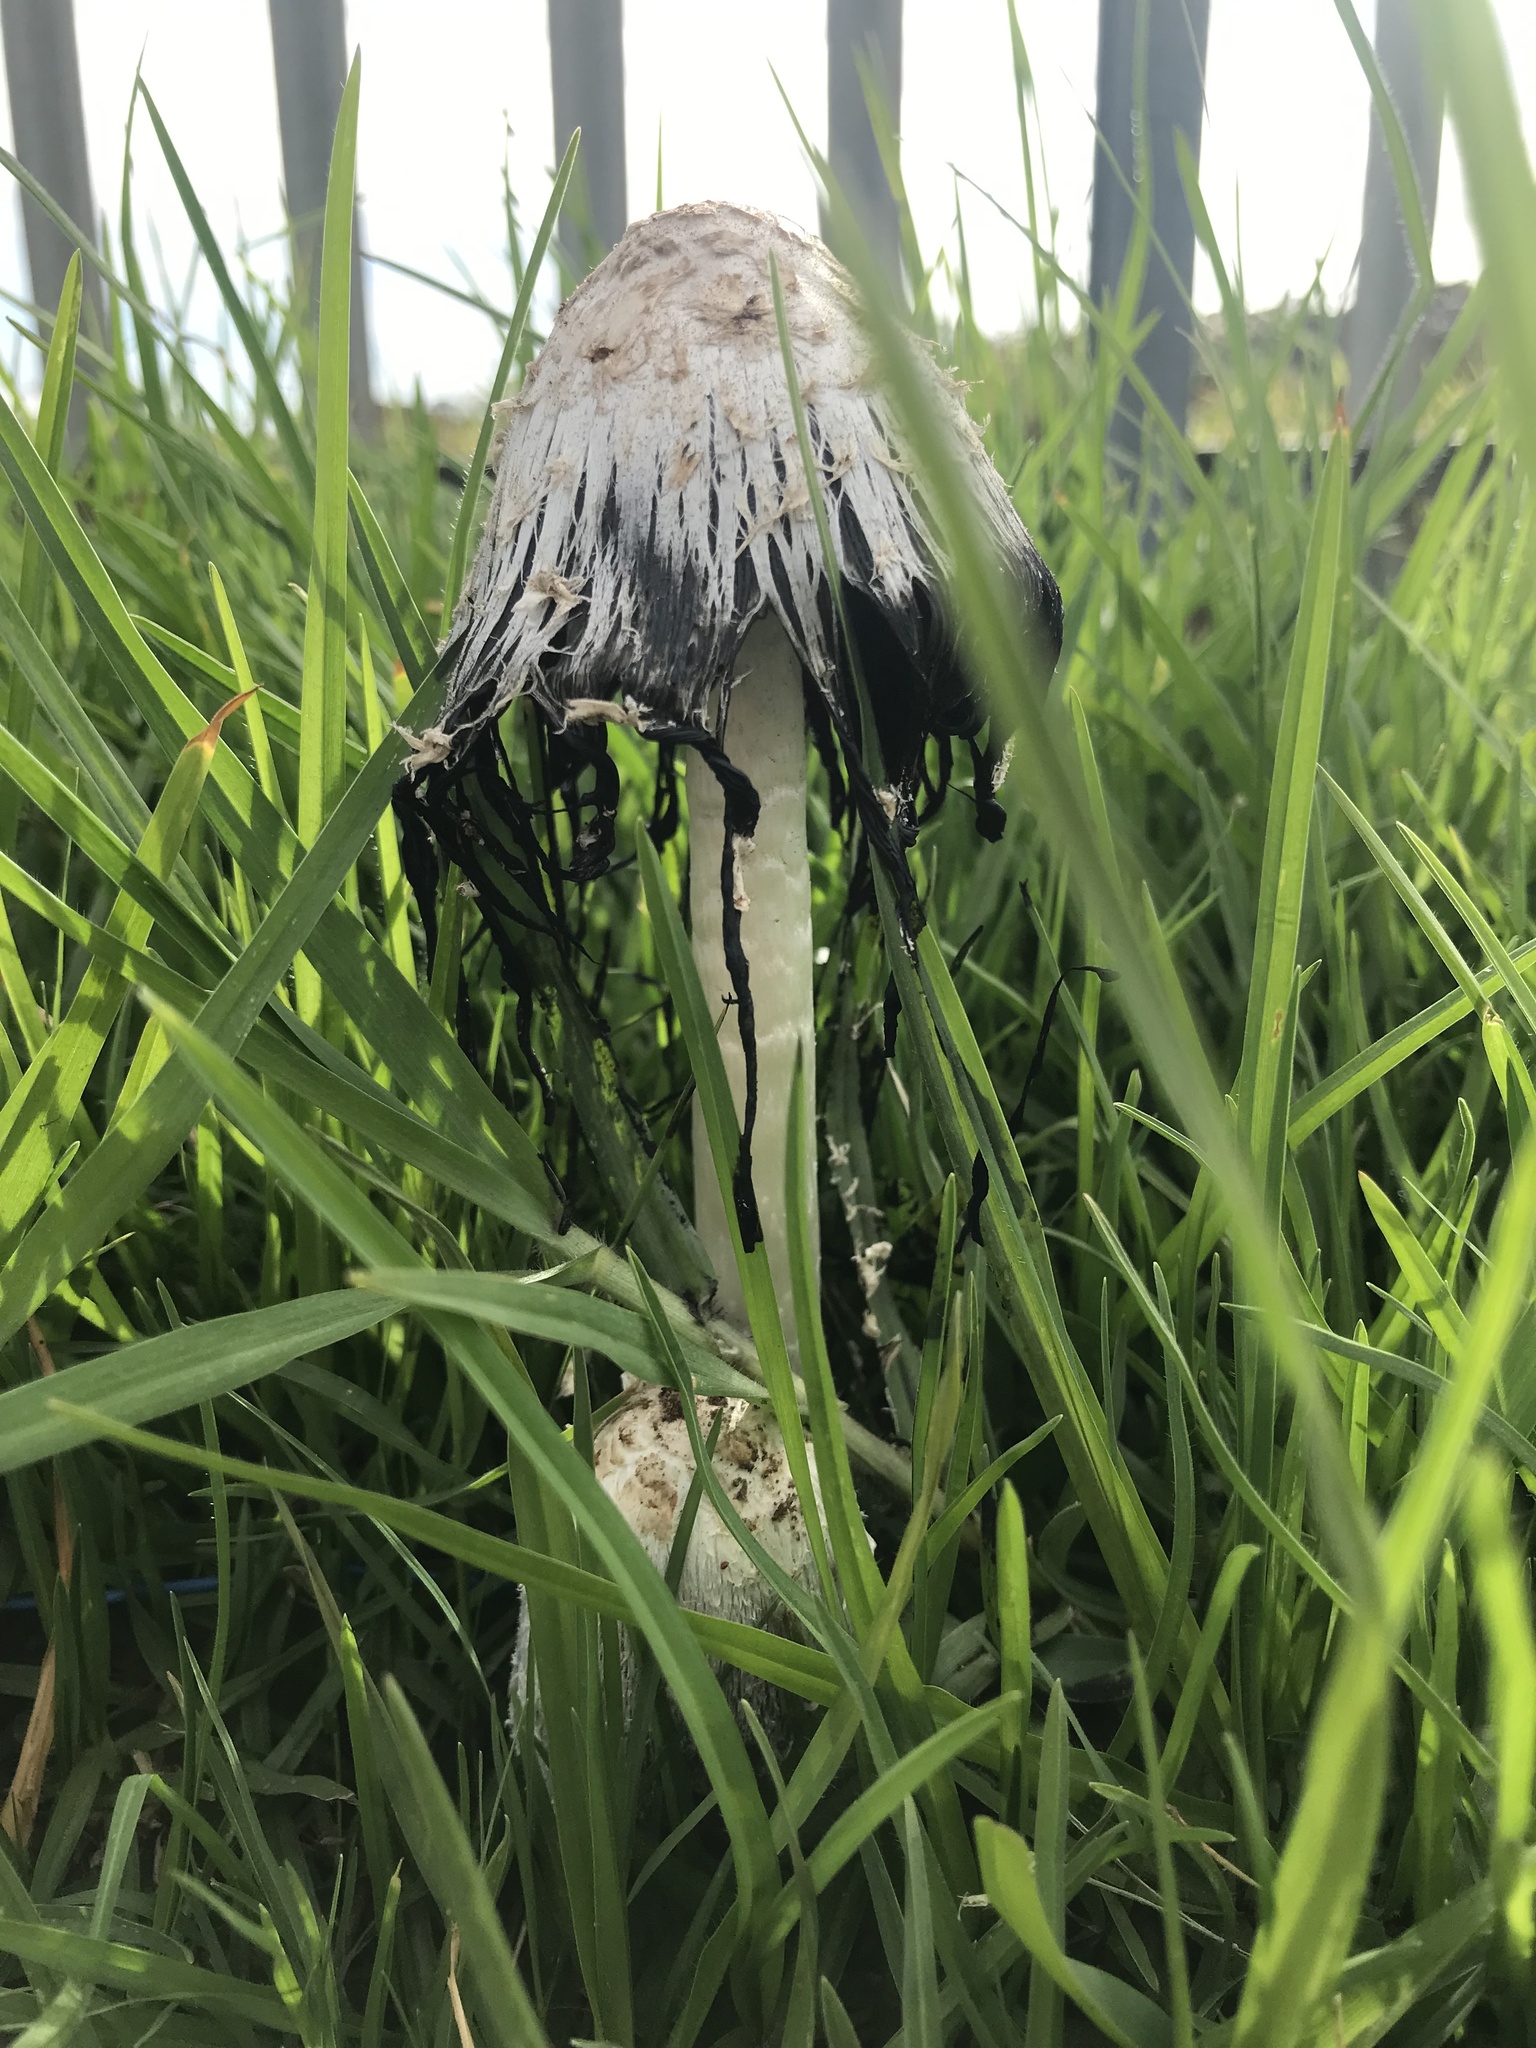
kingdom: Fungi
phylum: Basidiomycota
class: Agaricomycetes
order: Agaricales
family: Agaricaceae
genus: Coprinus
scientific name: Coprinus comatus
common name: Lawyer's wig
